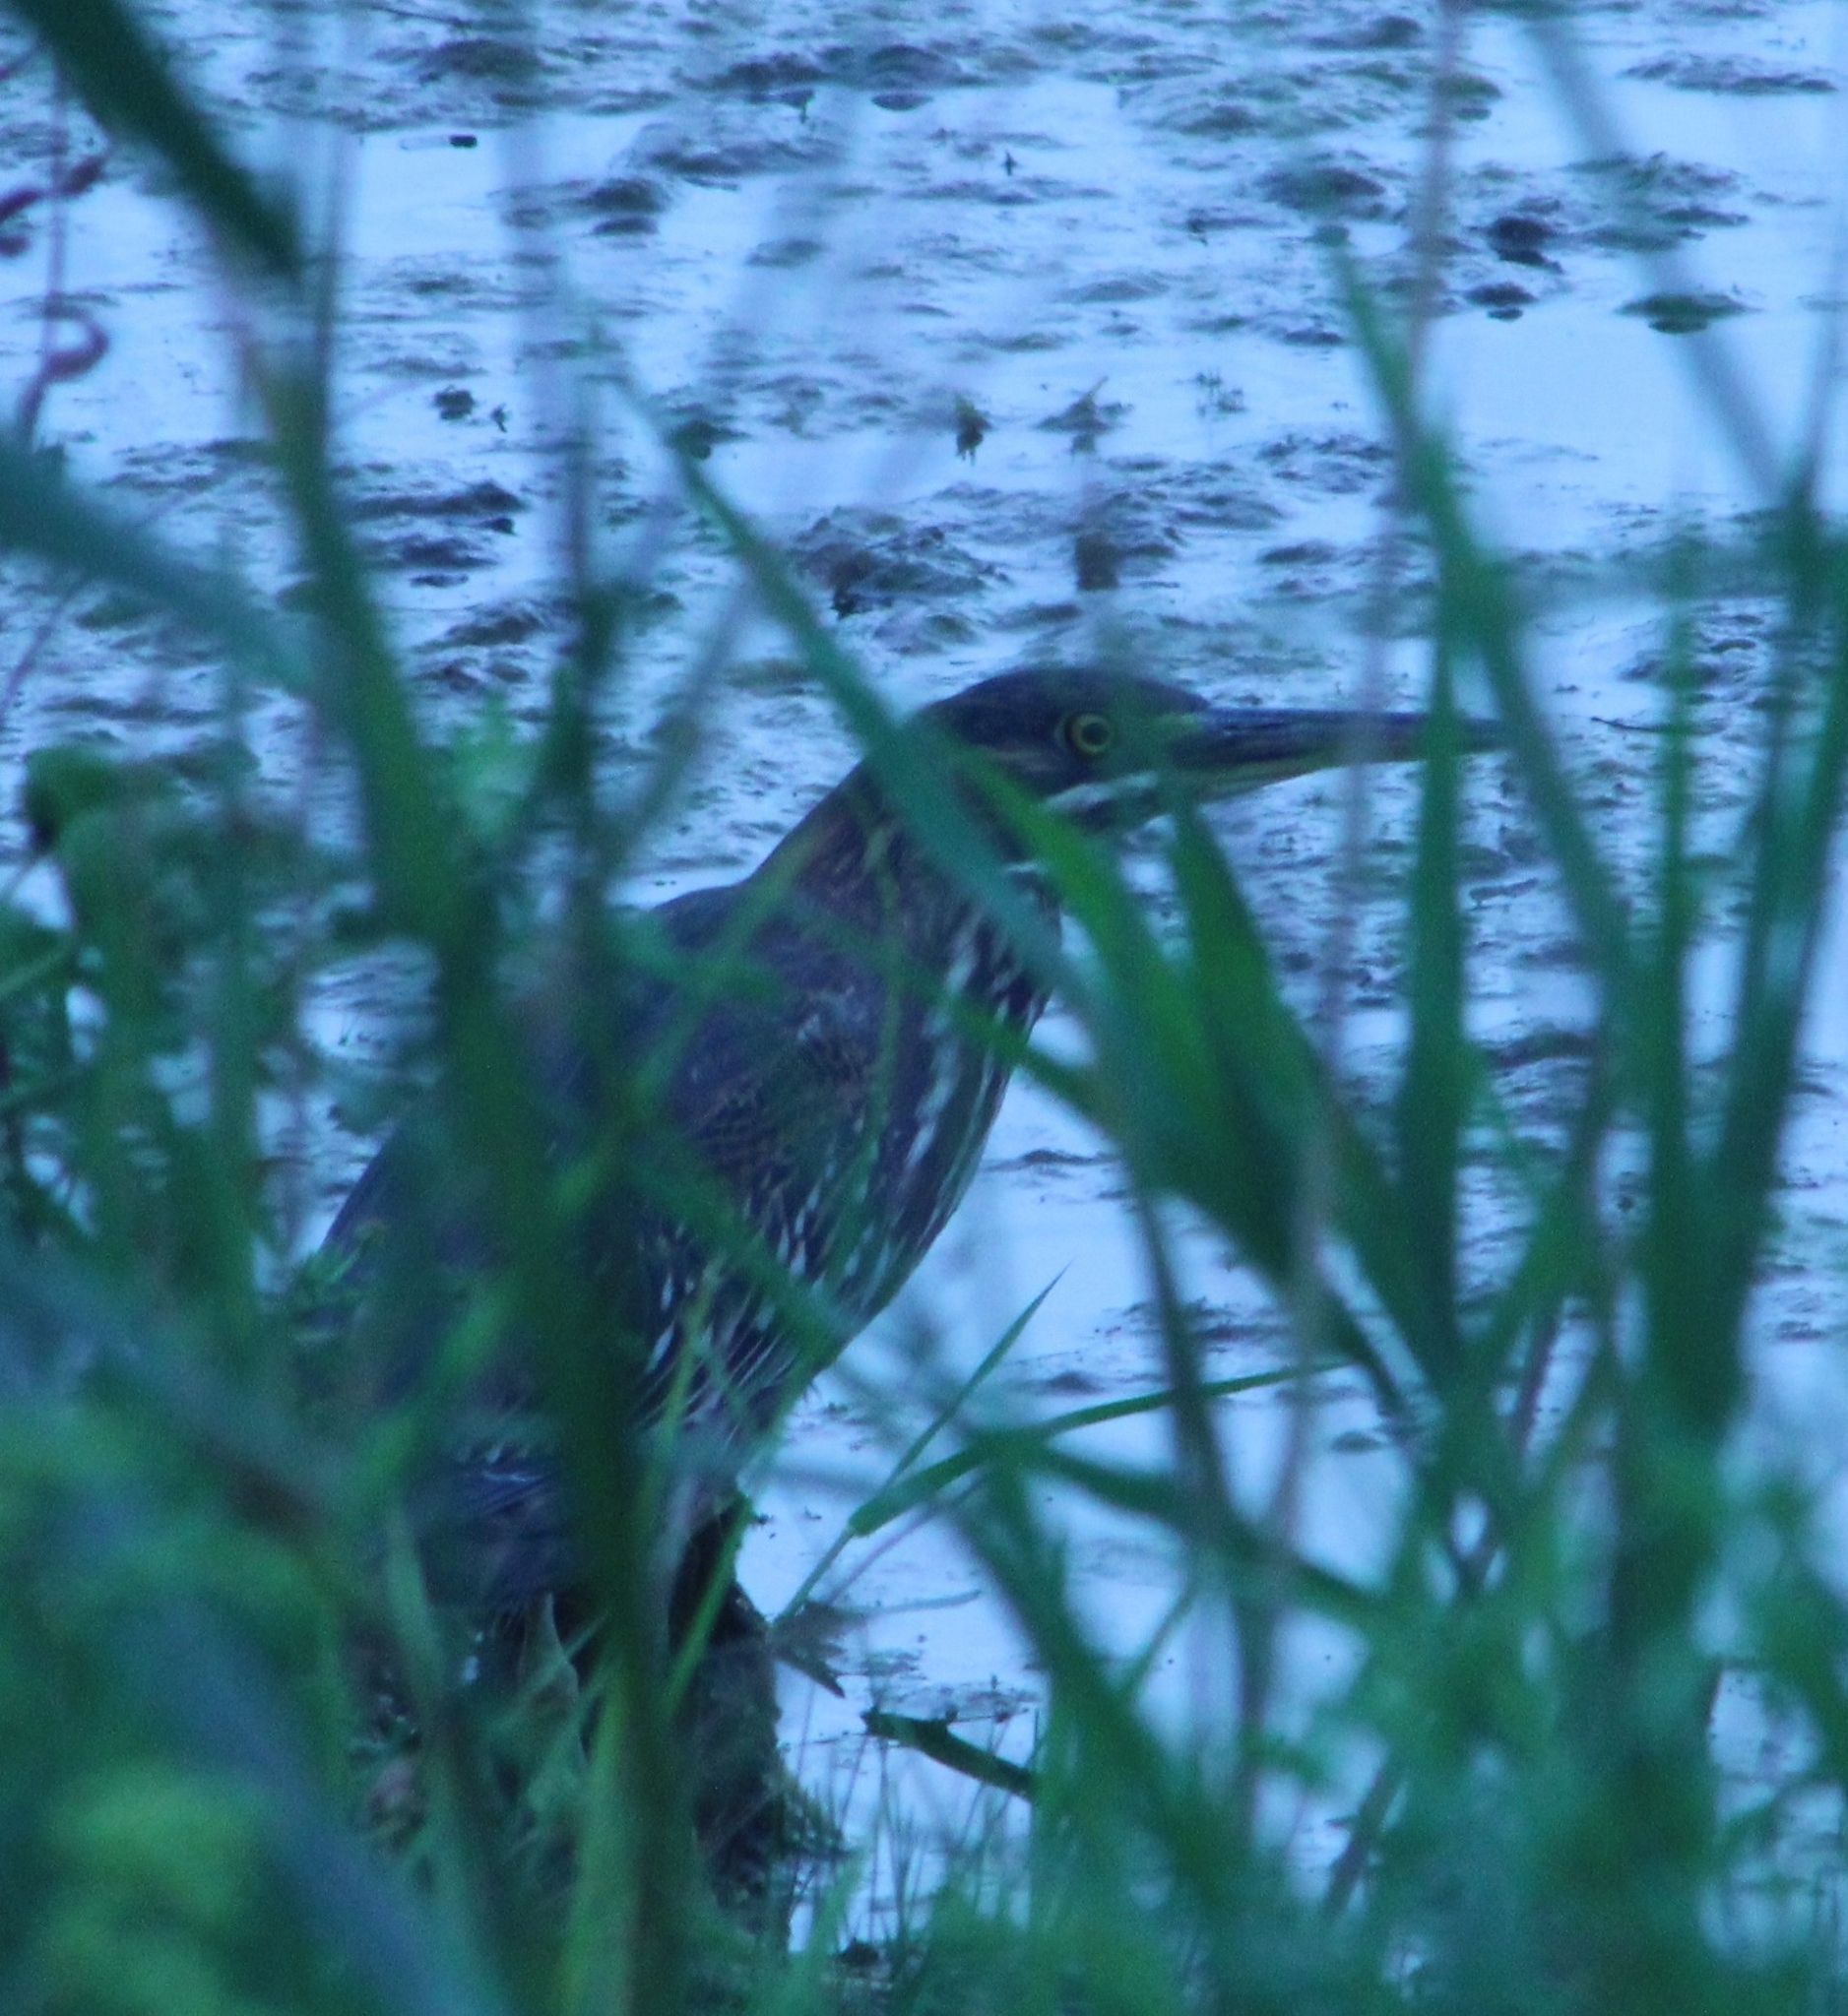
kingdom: Animalia
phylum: Chordata
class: Aves
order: Pelecaniformes
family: Ardeidae
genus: Butorides
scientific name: Butorides virescens
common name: Green heron
